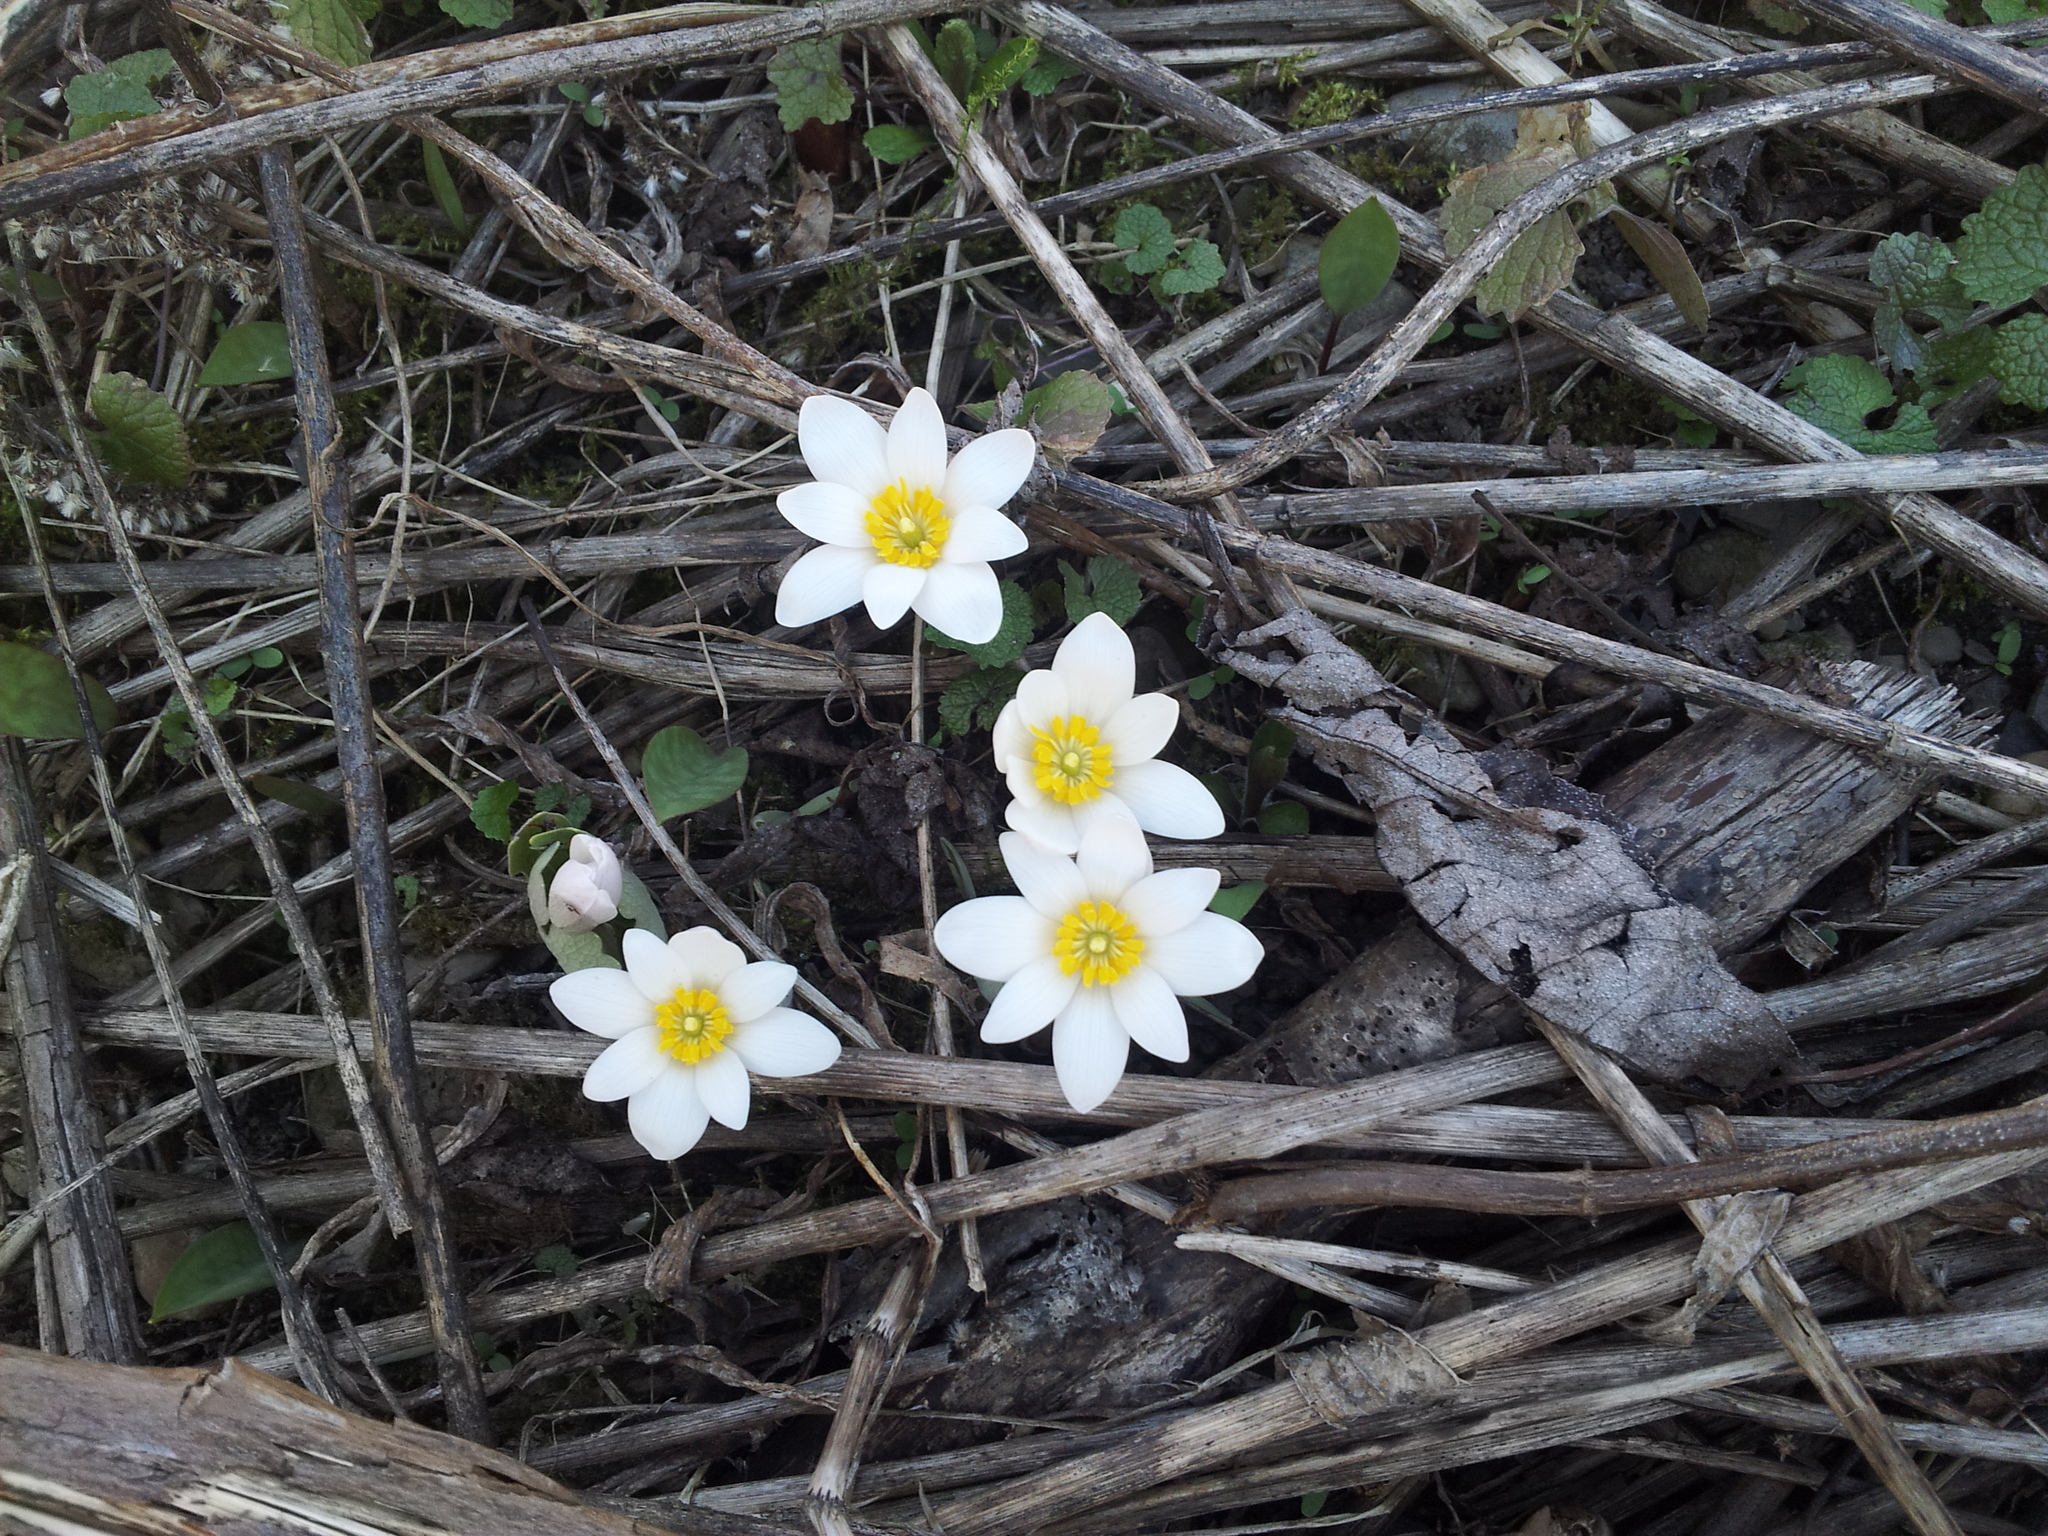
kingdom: Plantae
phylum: Tracheophyta
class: Magnoliopsida
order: Ranunculales
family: Papaveraceae
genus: Sanguinaria
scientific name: Sanguinaria canadensis
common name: Bloodroot
